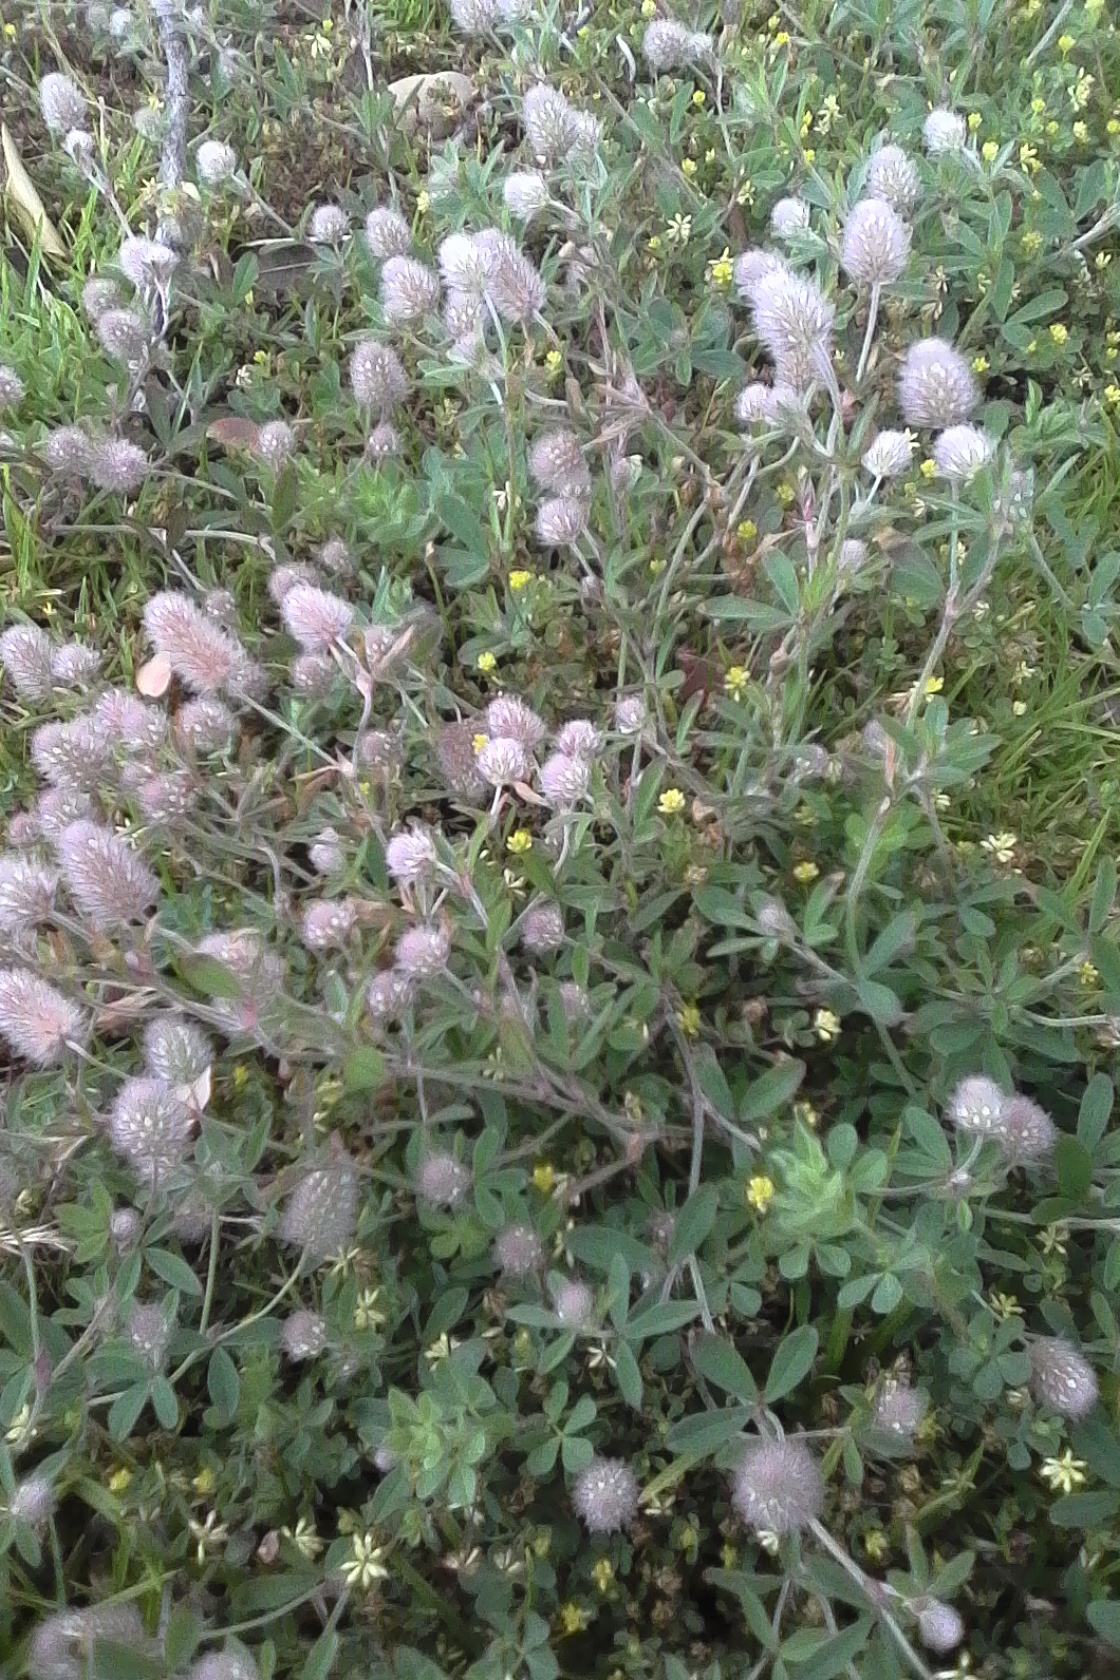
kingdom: Plantae
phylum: Tracheophyta
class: Magnoliopsida
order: Fabales
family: Fabaceae
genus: Trifolium
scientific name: Trifolium arvense
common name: Hare's-foot clover
